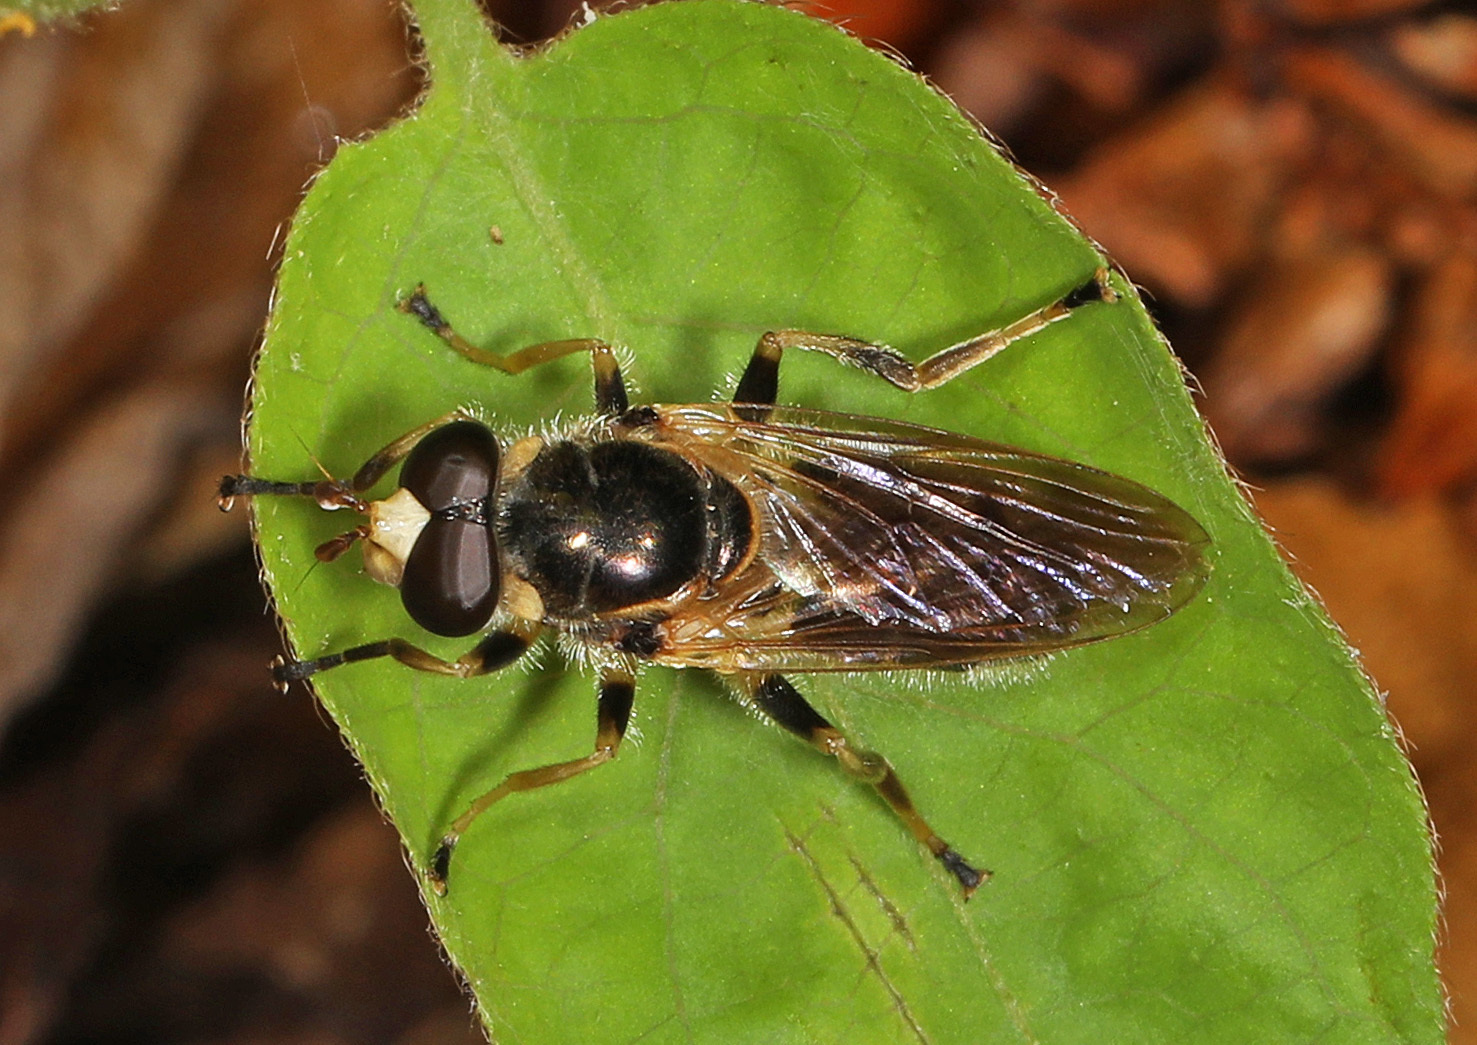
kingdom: Animalia
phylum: Arthropoda
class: Insecta
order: Diptera
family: Syrphidae
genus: Blera
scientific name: Blera pictipes
